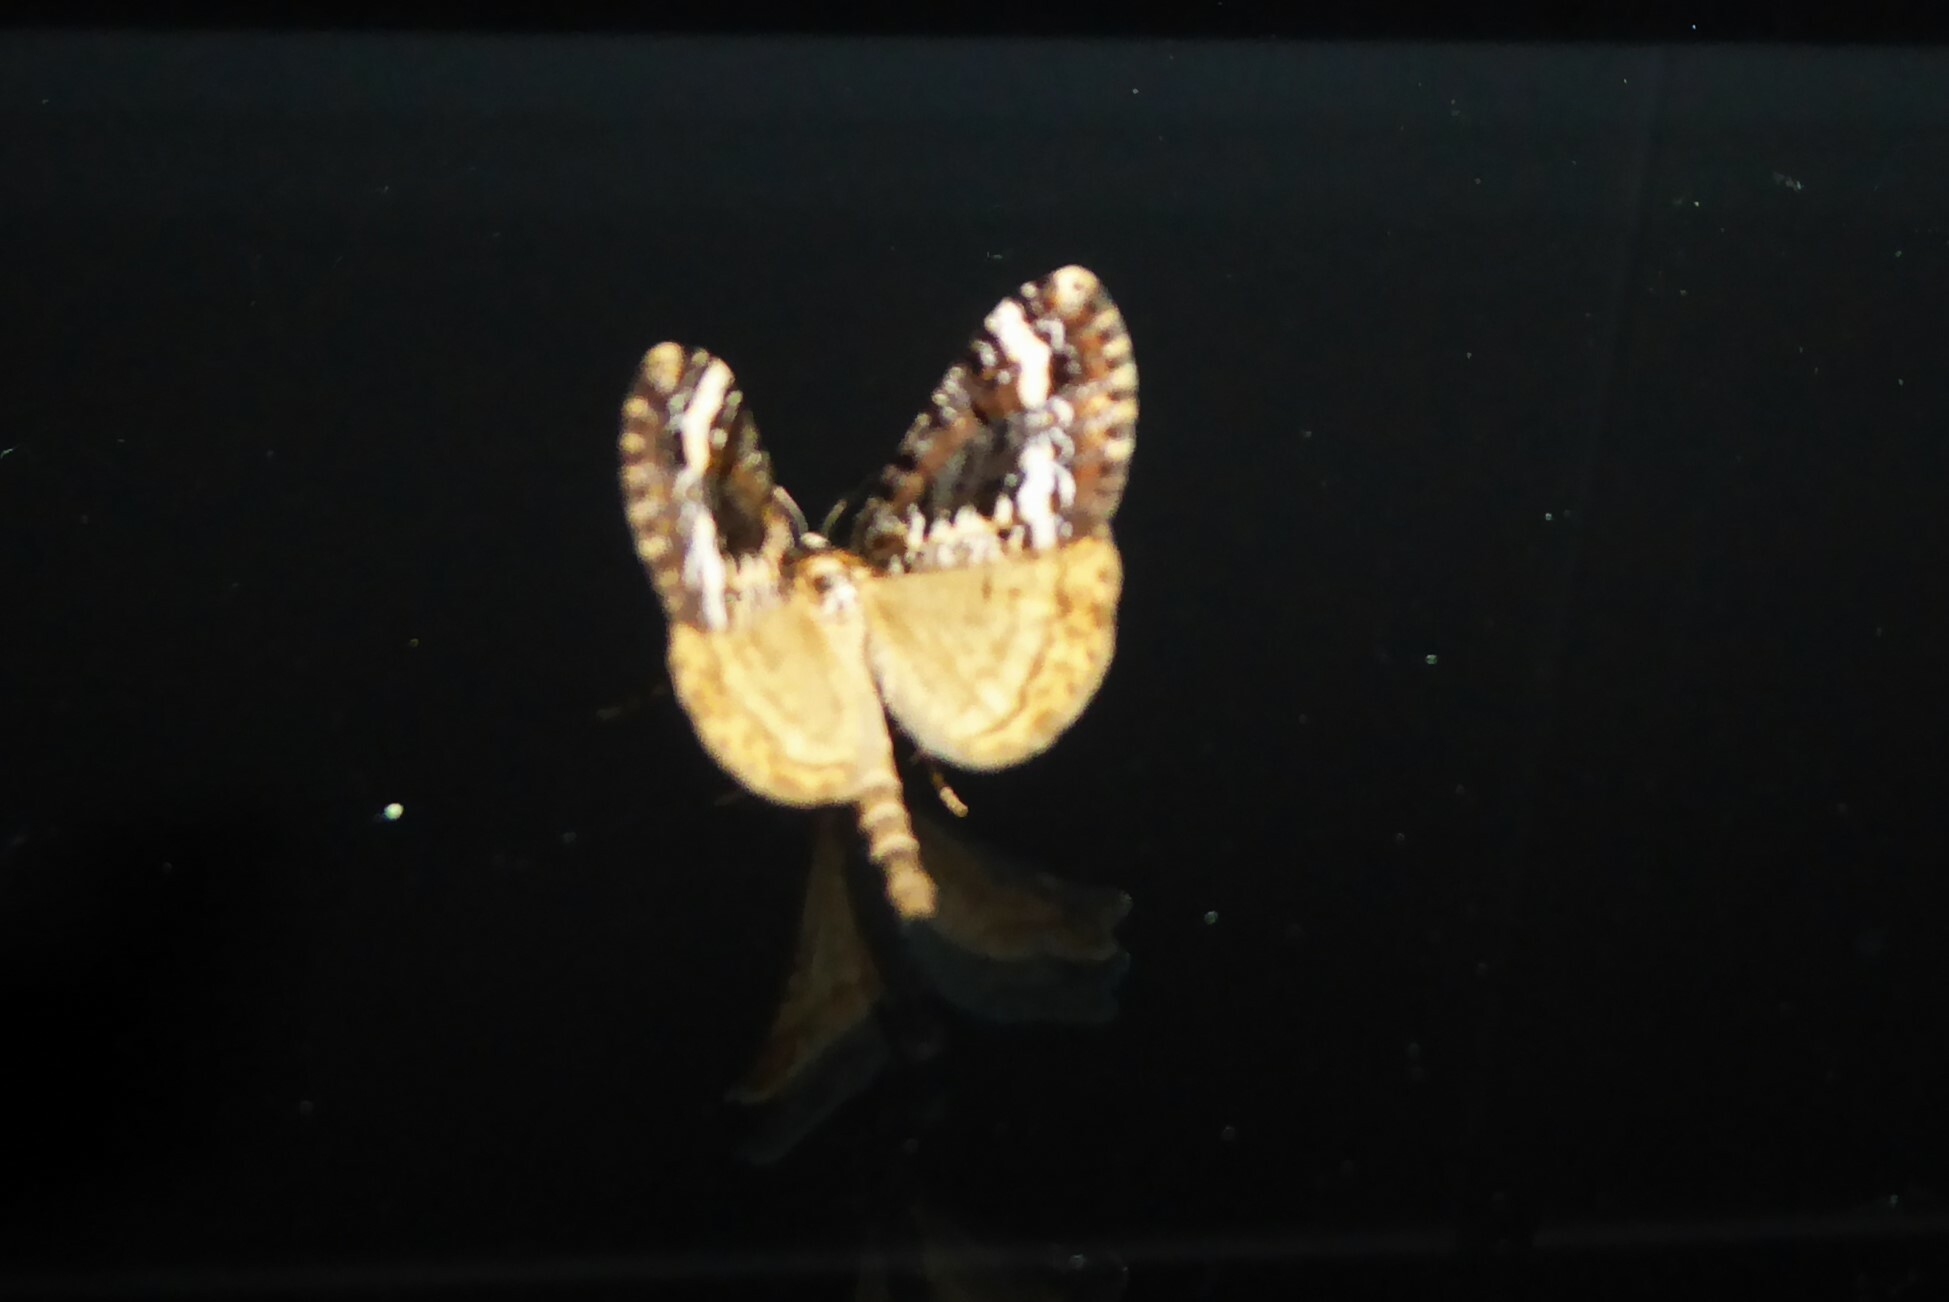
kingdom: Animalia
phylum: Arthropoda
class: Insecta
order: Lepidoptera
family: Geometridae
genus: Pseudocoremia
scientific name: Pseudocoremia leucelaea
